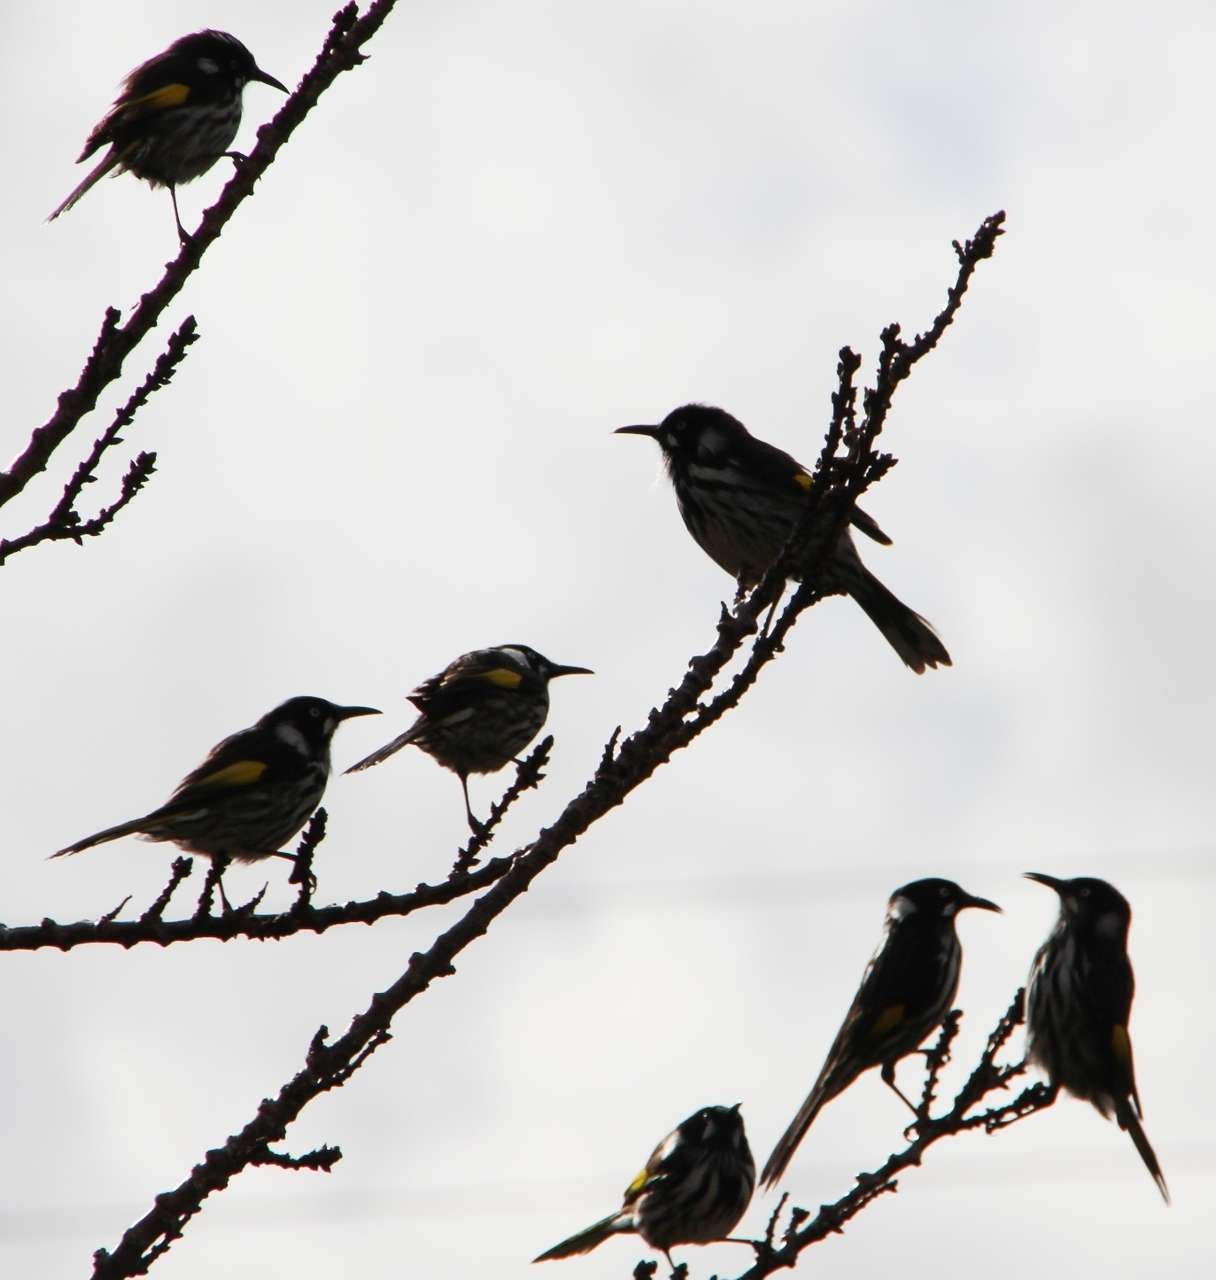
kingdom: Animalia
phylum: Chordata
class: Aves
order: Passeriformes
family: Meliphagidae
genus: Phylidonyris
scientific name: Phylidonyris novaehollandiae
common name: New holland honeyeater
